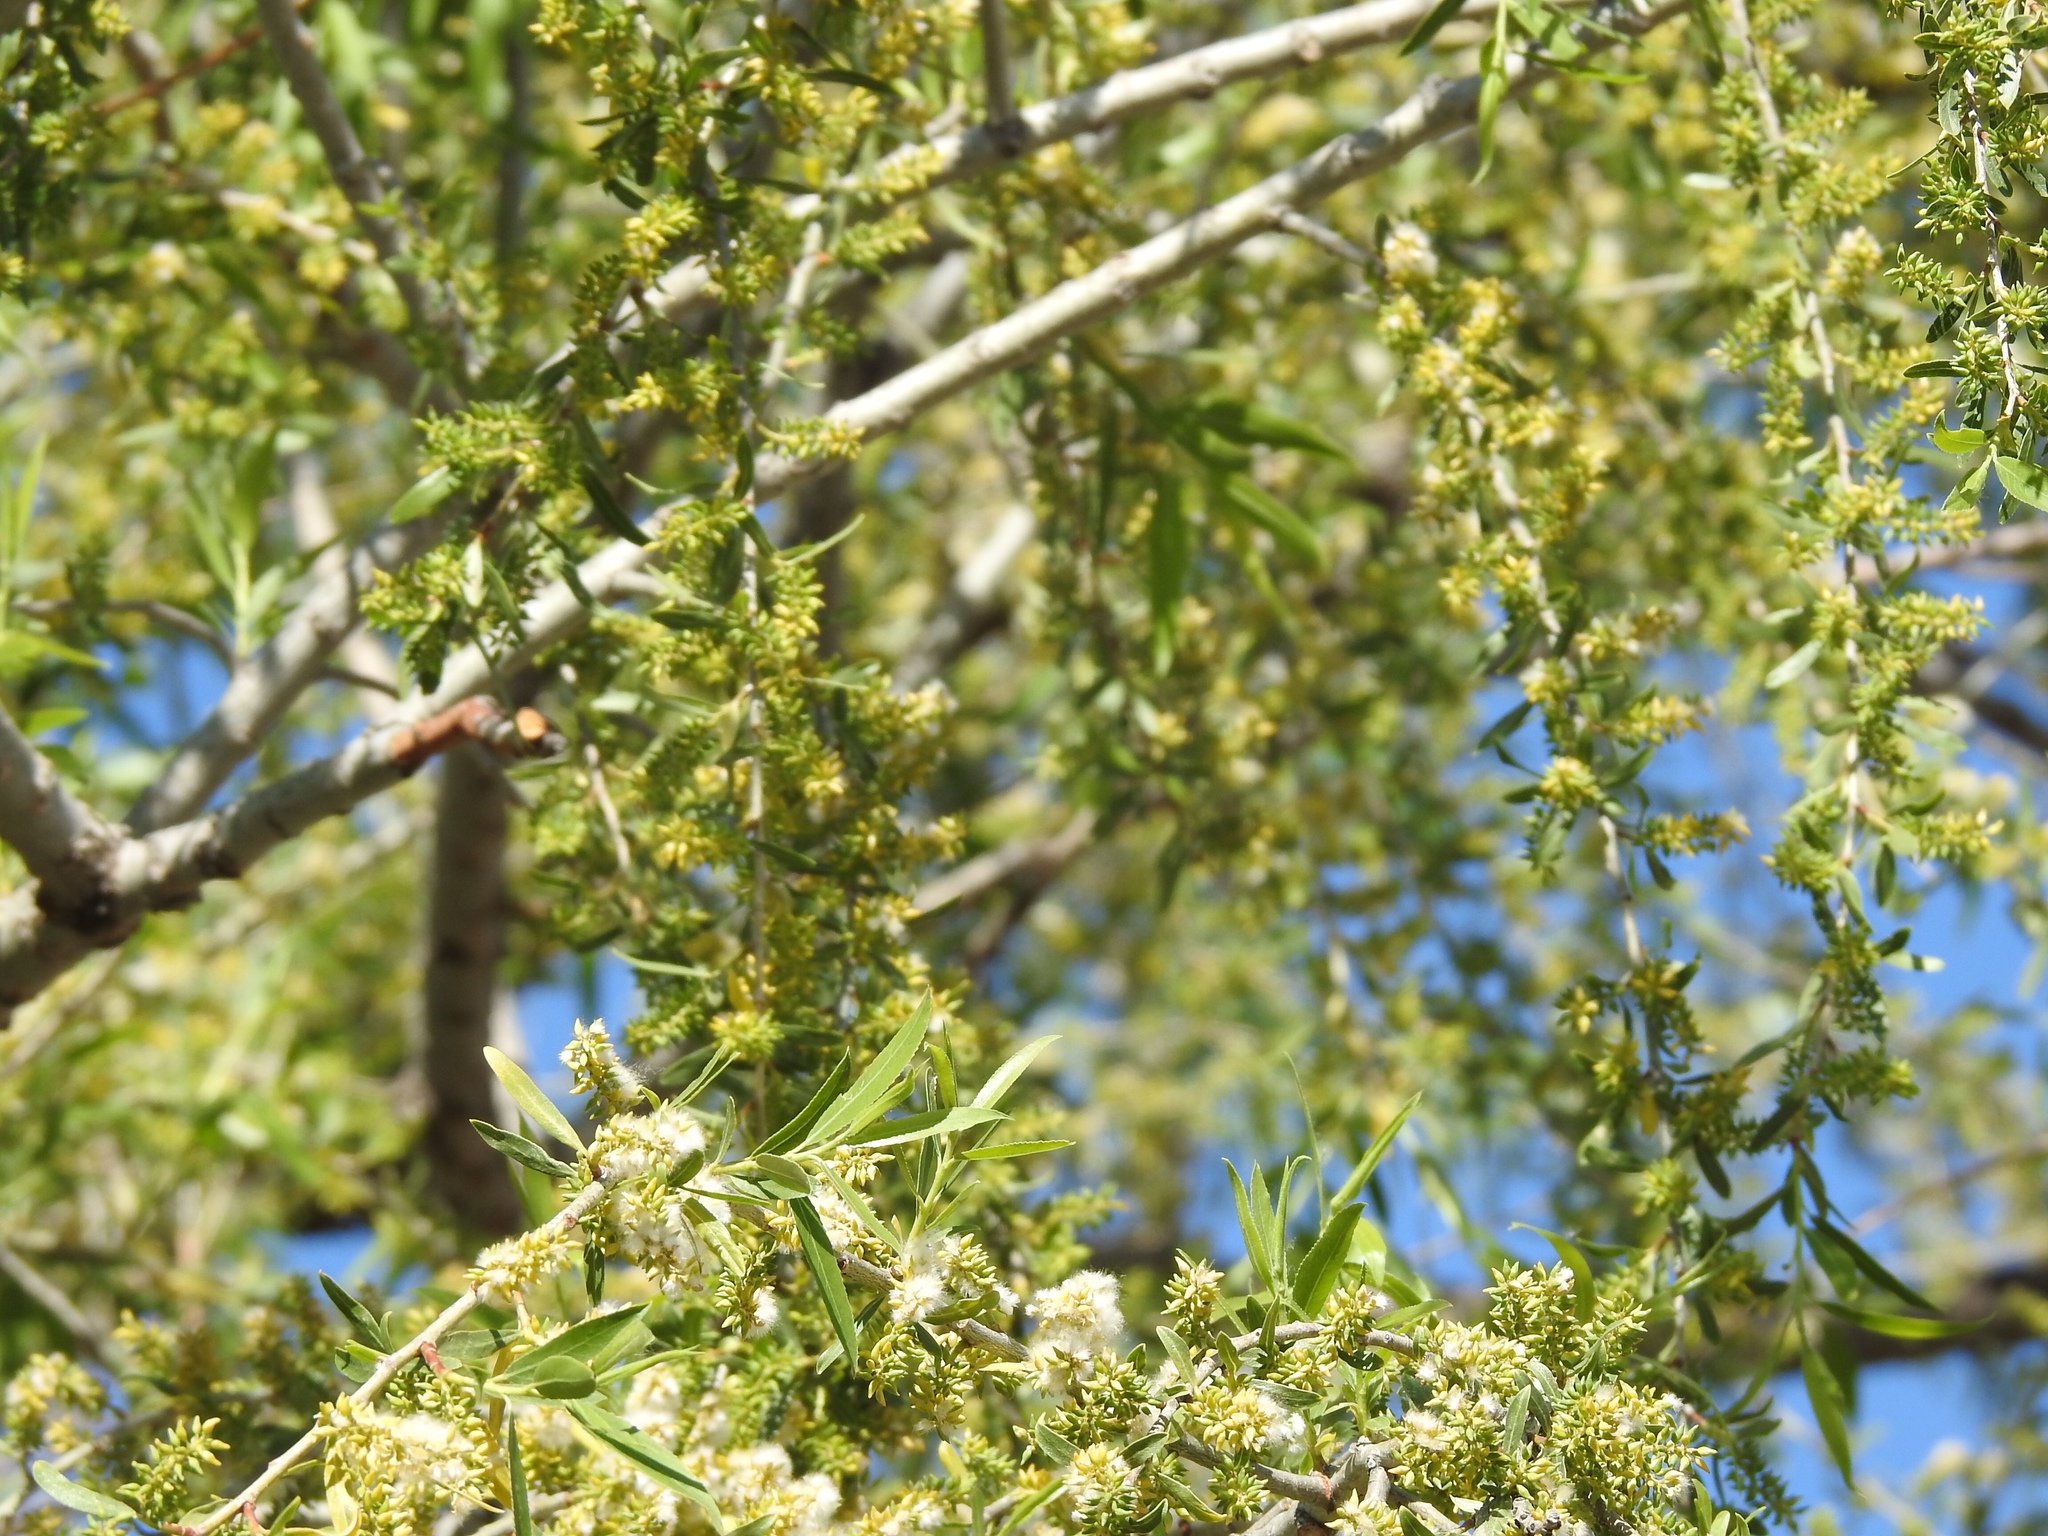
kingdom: Plantae
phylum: Tracheophyta
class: Magnoliopsida
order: Malpighiales
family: Salicaceae
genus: Salix
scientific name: Salix gooddingii
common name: Goodding's willow
